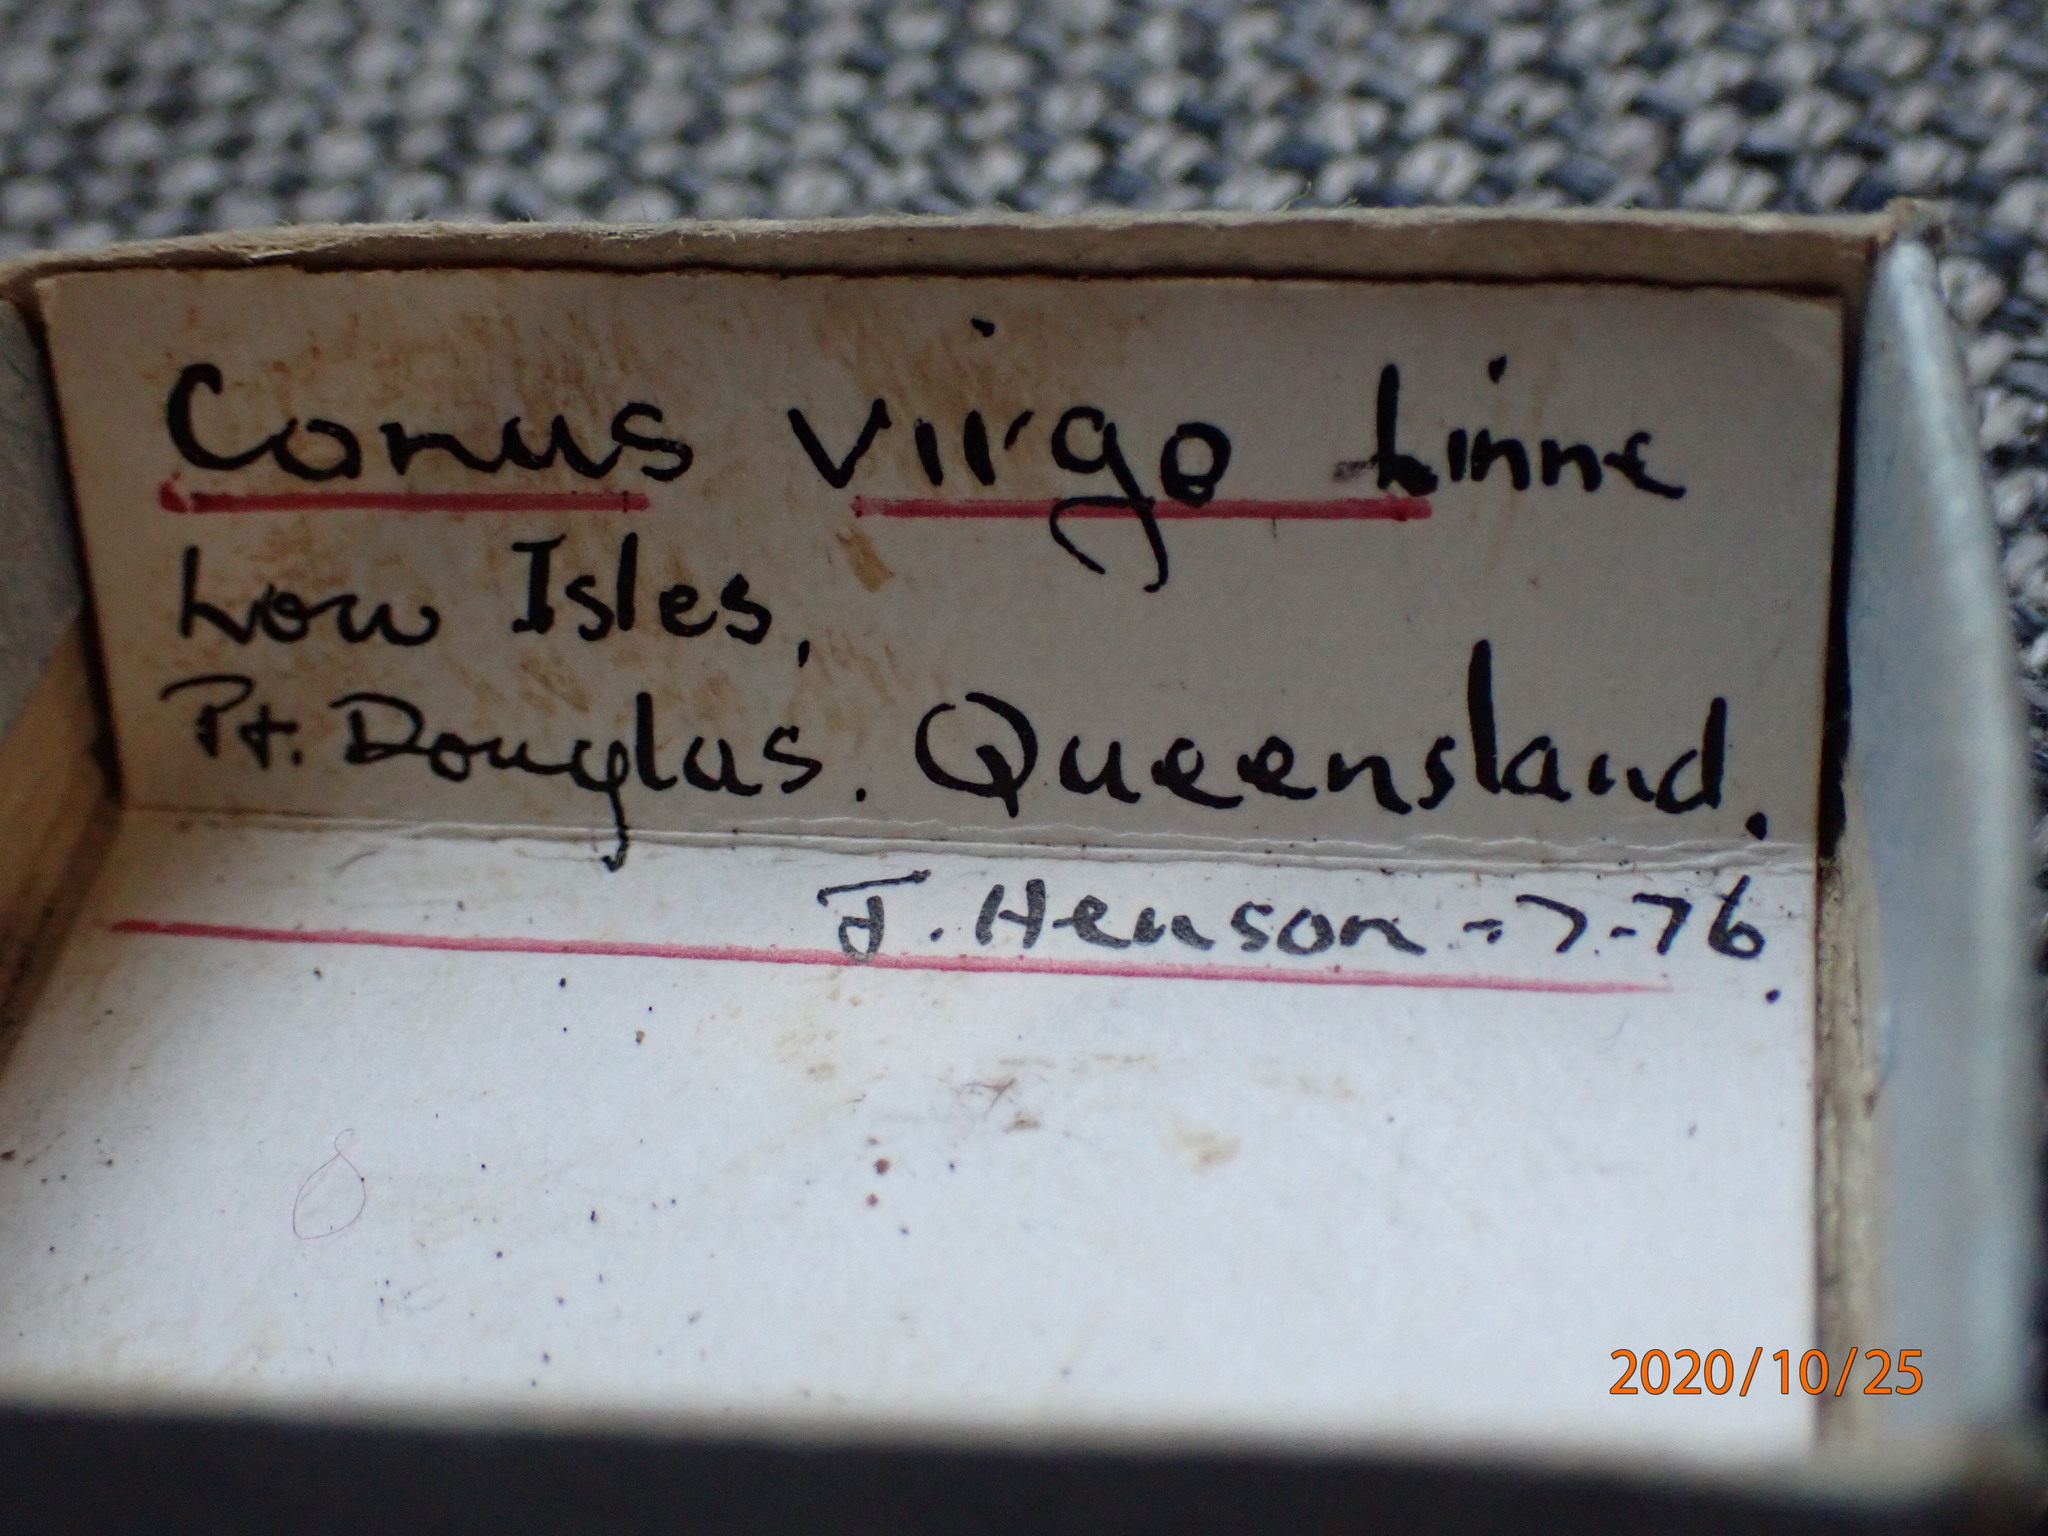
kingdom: Animalia
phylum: Mollusca
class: Gastropoda
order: Neogastropoda
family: Conidae
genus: Conus
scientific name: Conus virgo
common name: Virgin cone
